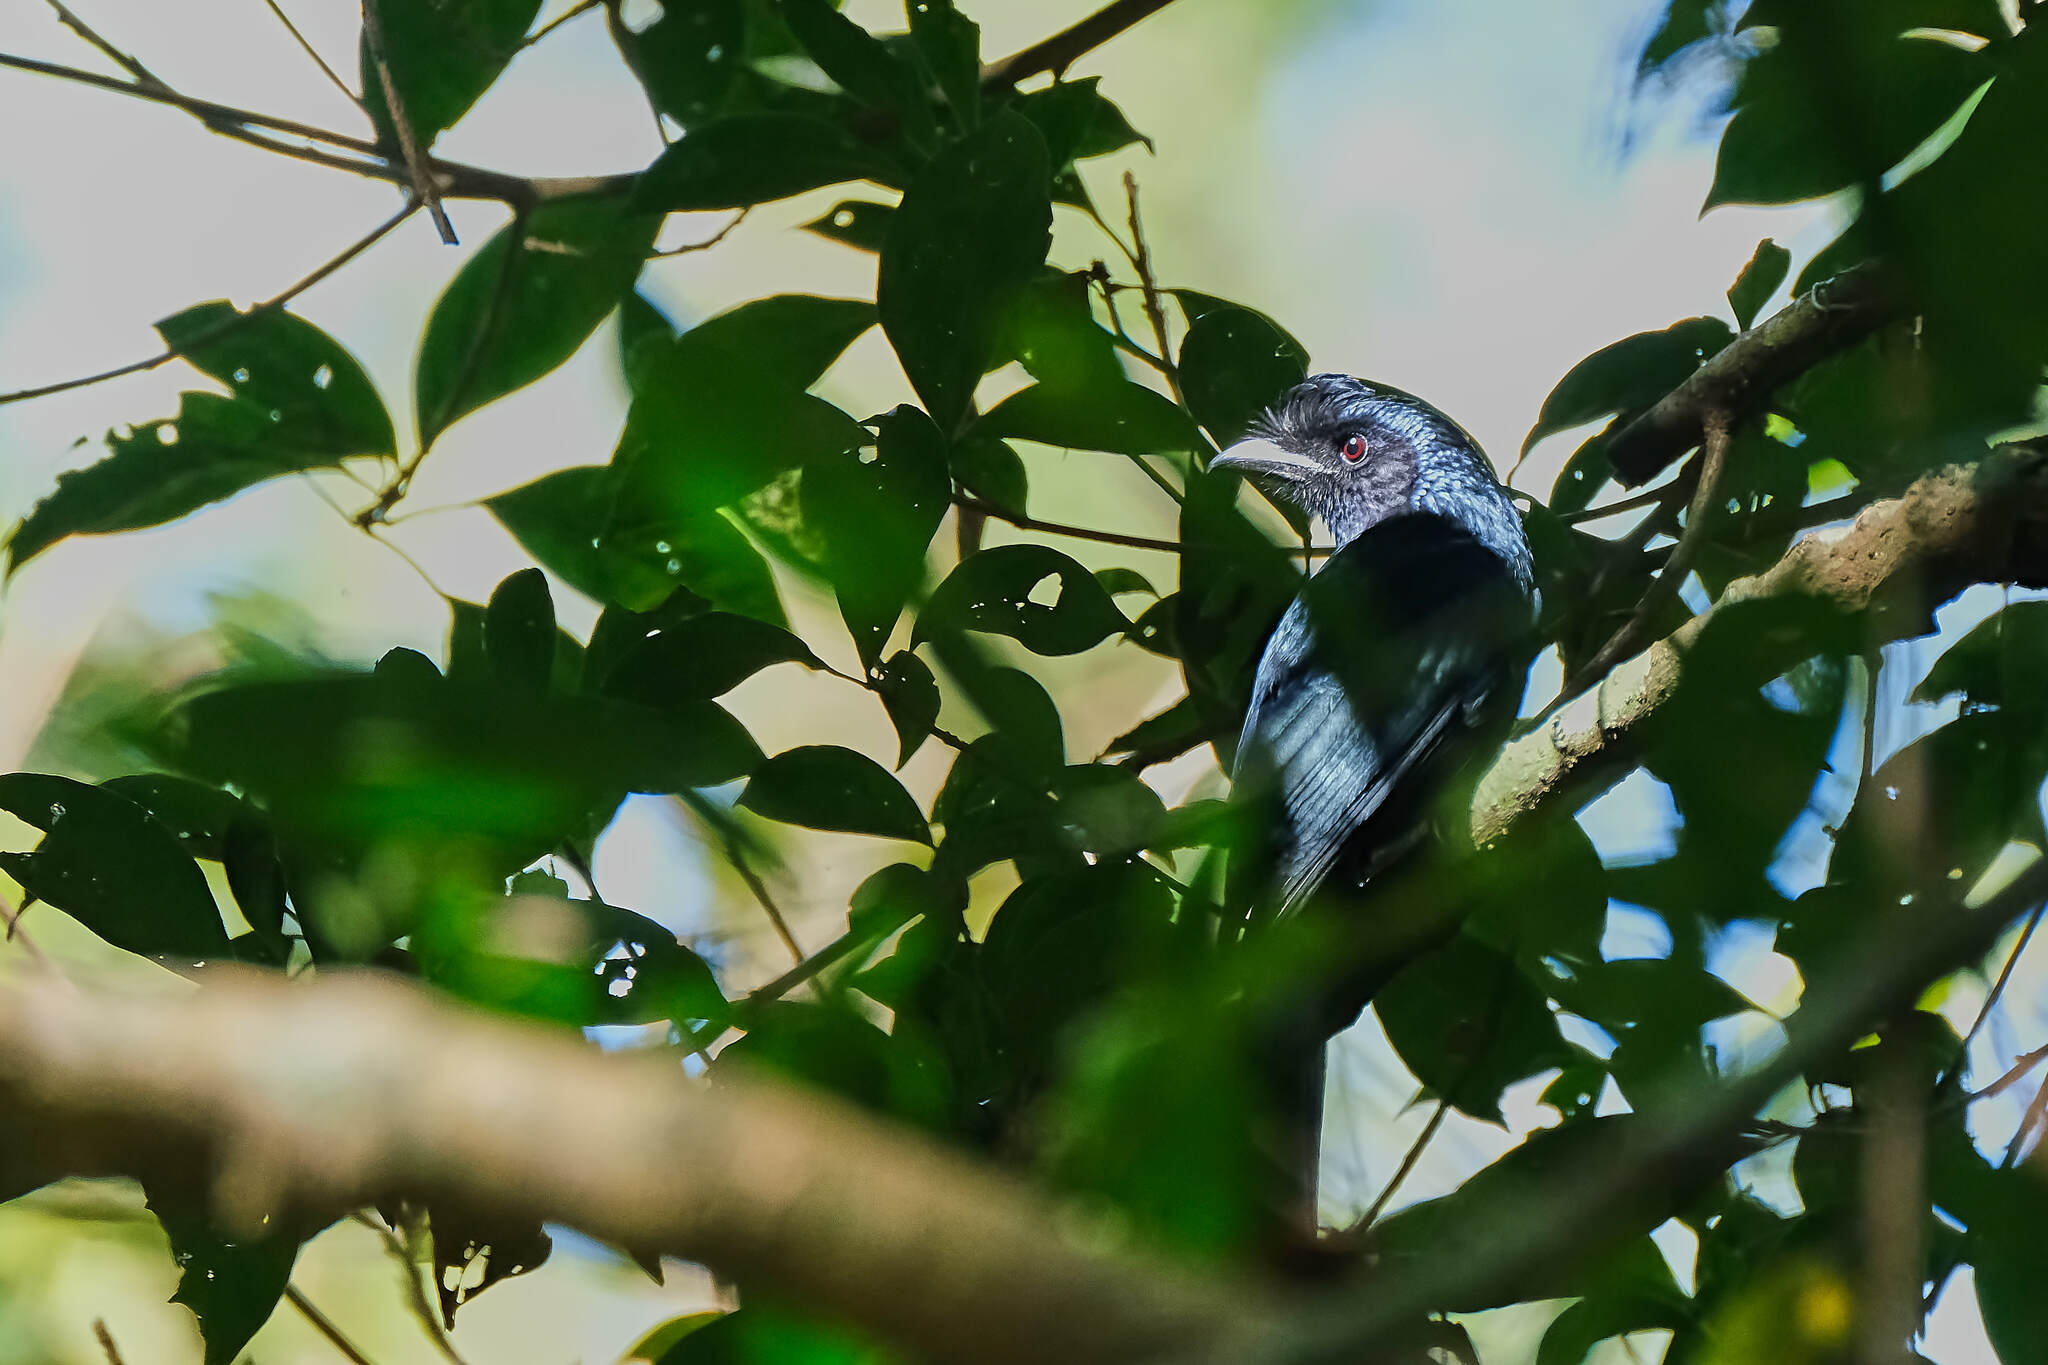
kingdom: Animalia
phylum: Chordata
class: Aves
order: Passeriformes
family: Dicruridae
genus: Dicrurus
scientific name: Dicrurus paradiseus
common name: Greater racket-tailed drongo
